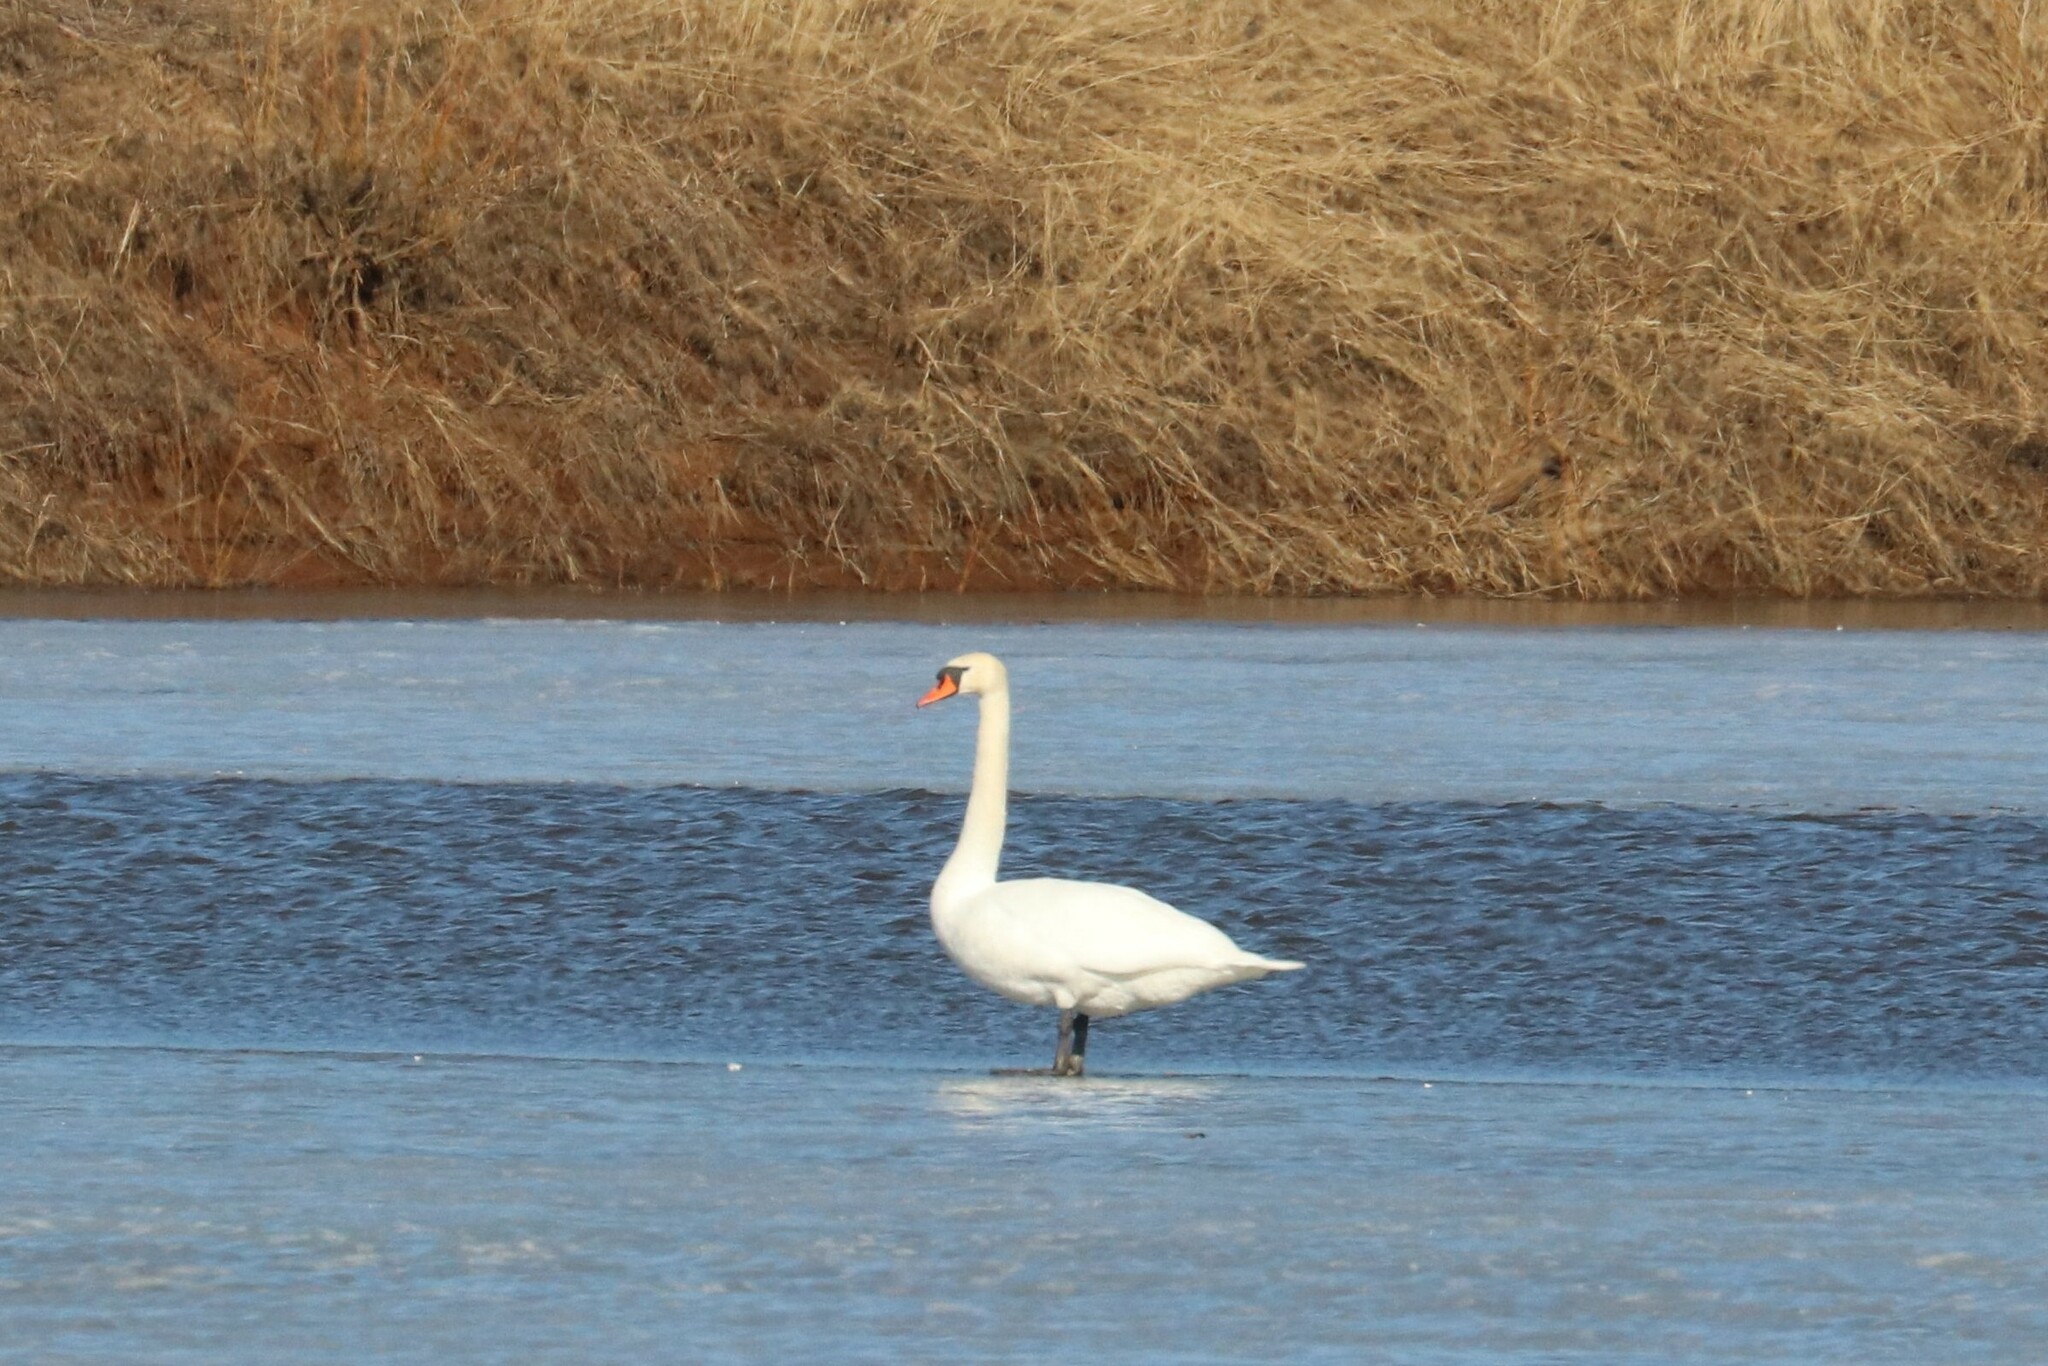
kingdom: Animalia
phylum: Chordata
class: Aves
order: Anseriformes
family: Anatidae
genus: Cygnus
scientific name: Cygnus olor
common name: Mute swan
